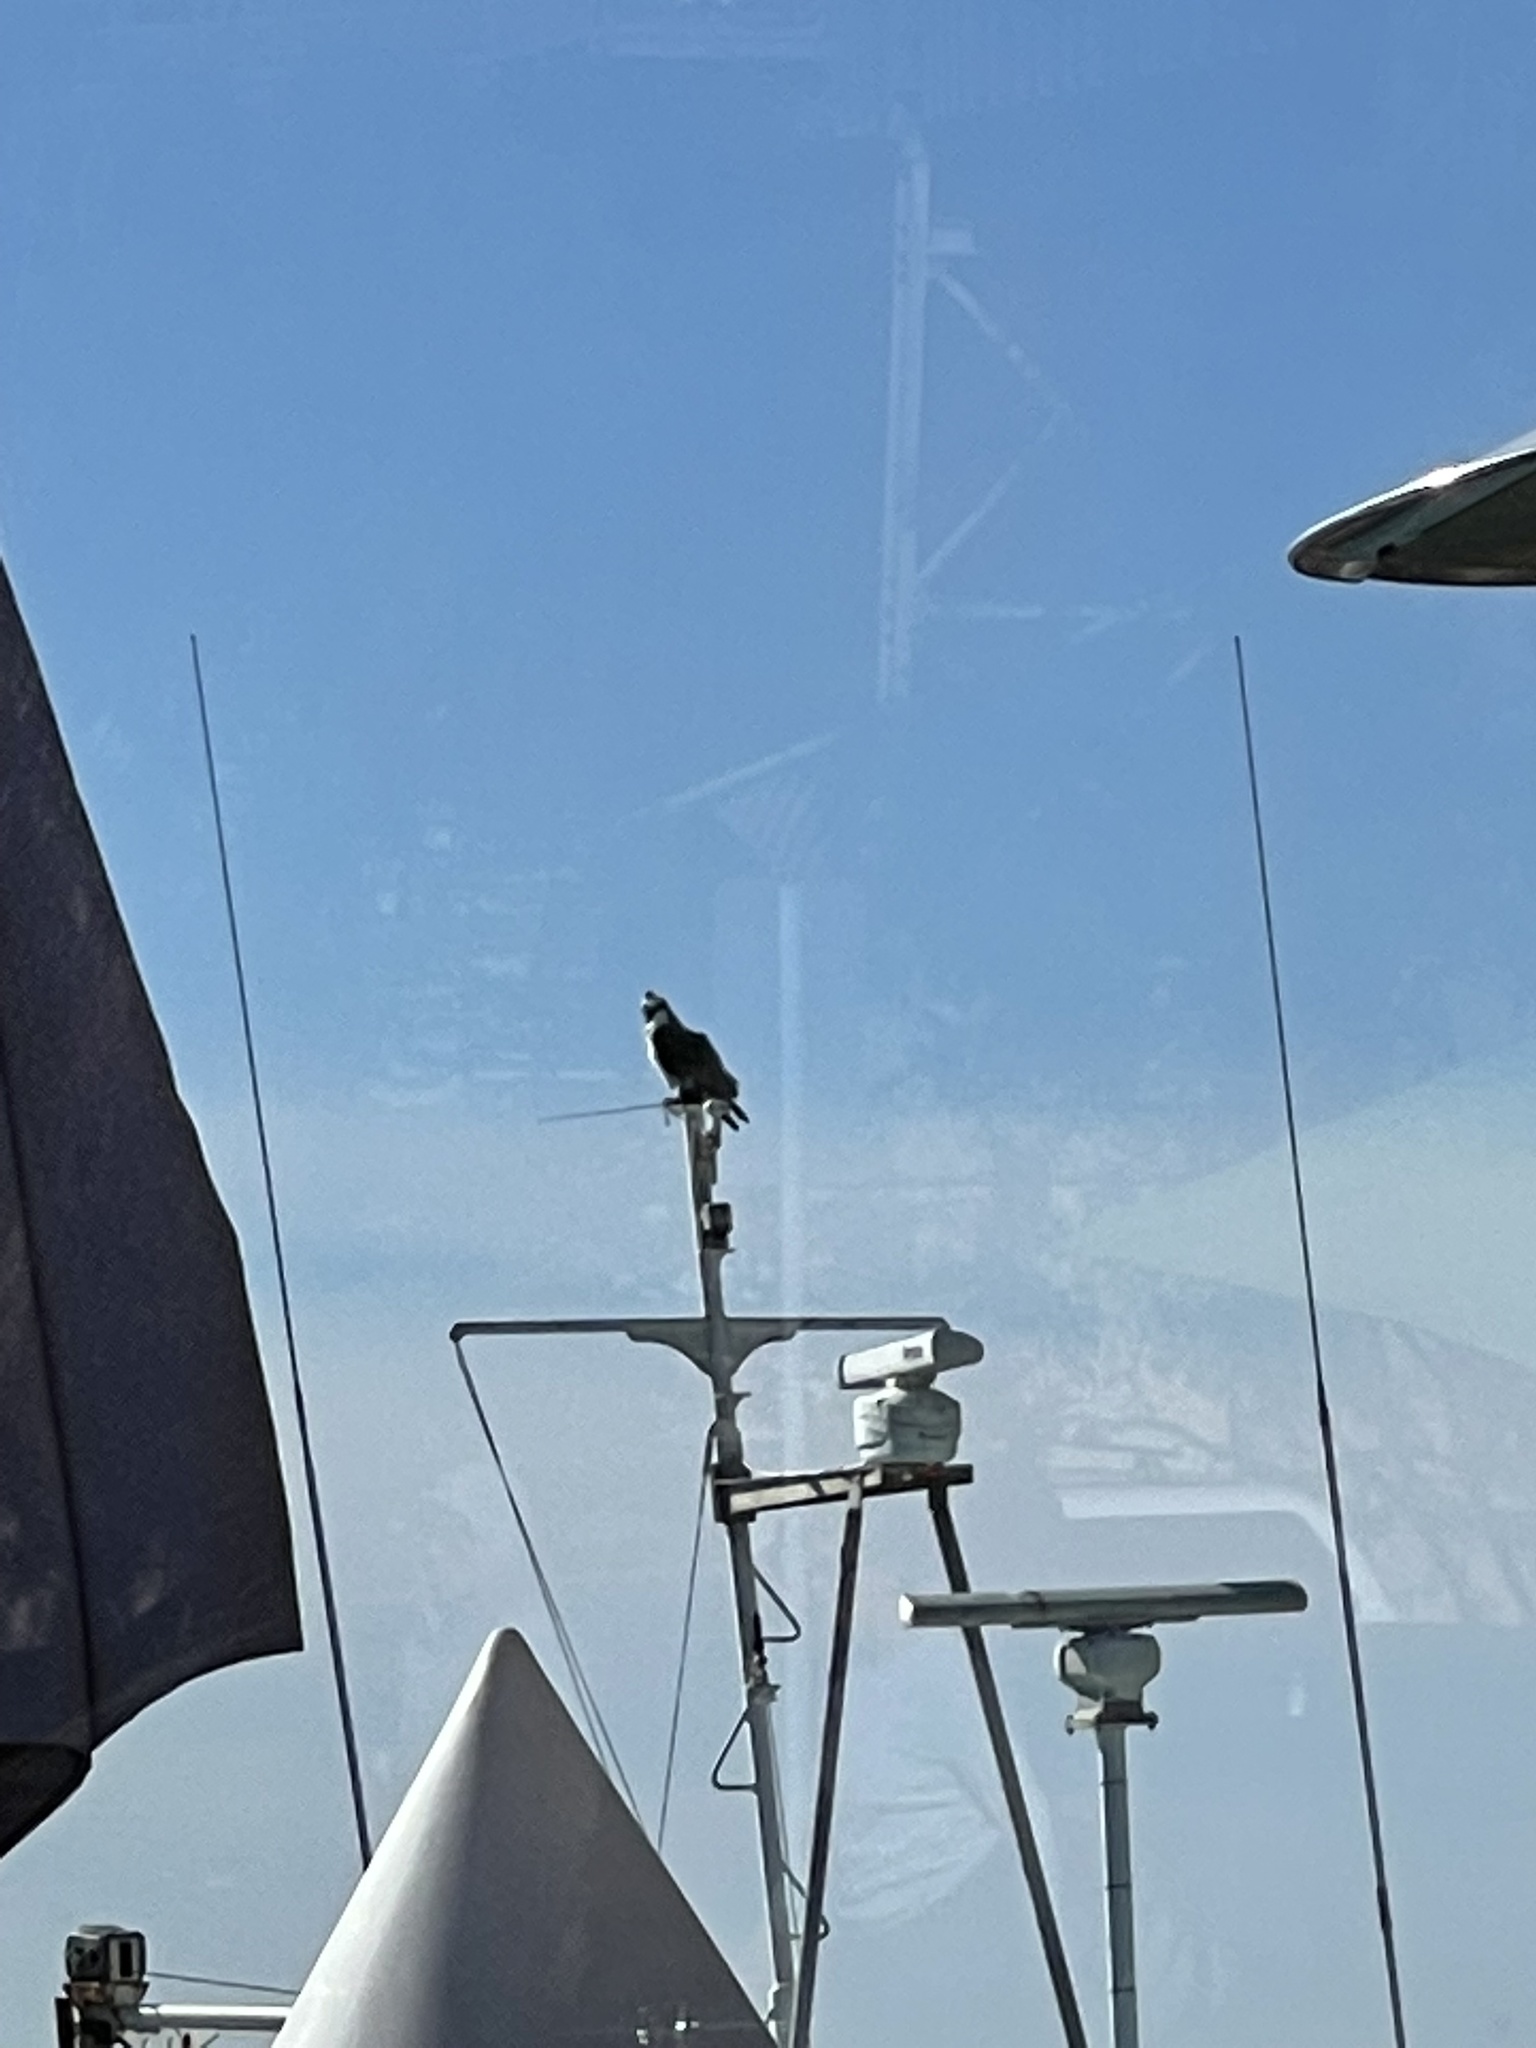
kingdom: Animalia
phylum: Chordata
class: Aves
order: Accipitriformes
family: Pandionidae
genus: Pandion
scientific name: Pandion haliaetus
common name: Osprey
